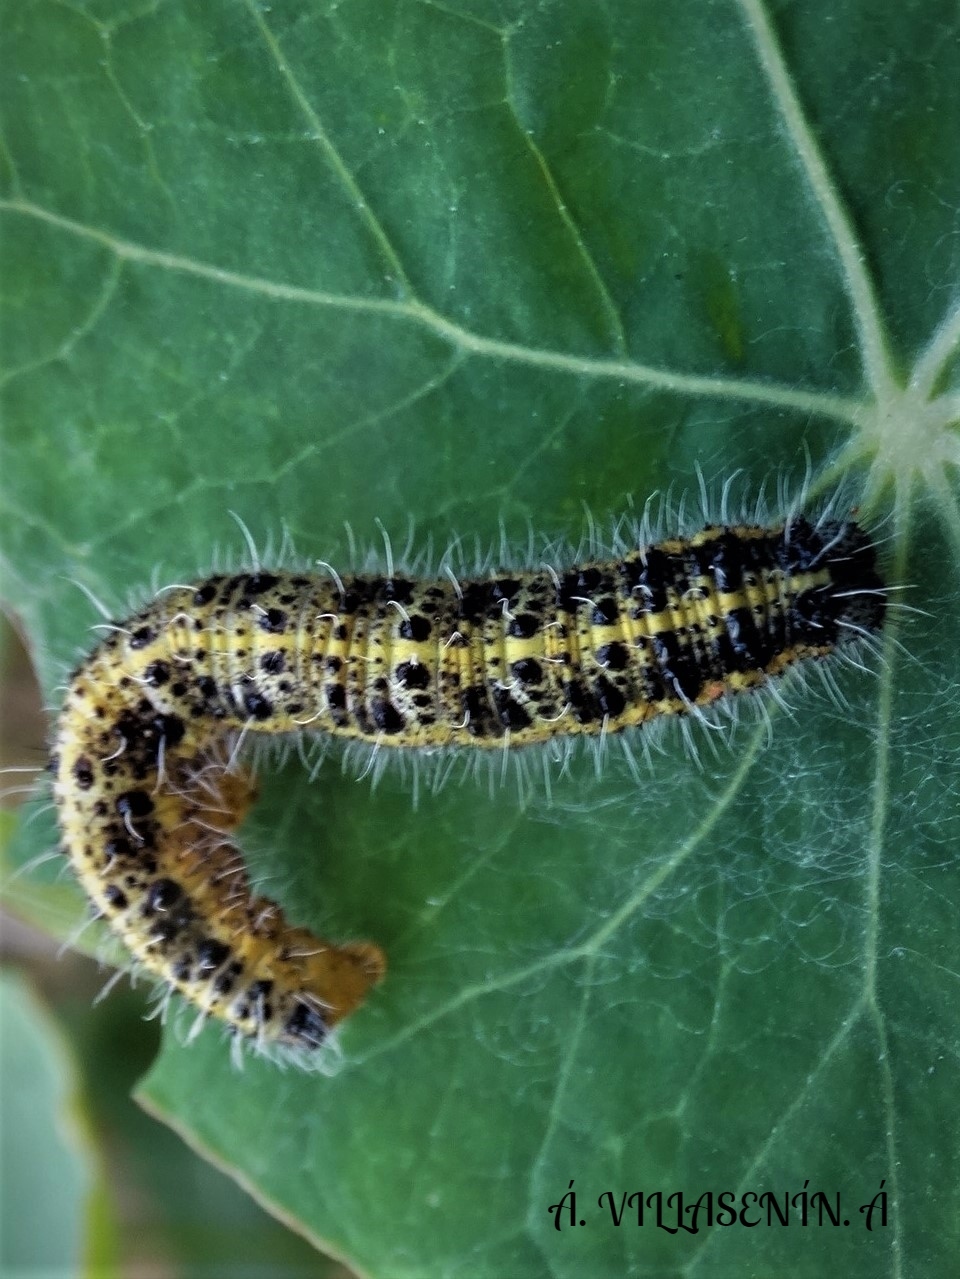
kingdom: Animalia
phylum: Arthropoda
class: Insecta
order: Lepidoptera
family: Pieridae
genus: Pieris
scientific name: Pieris brassicae
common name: Large white
